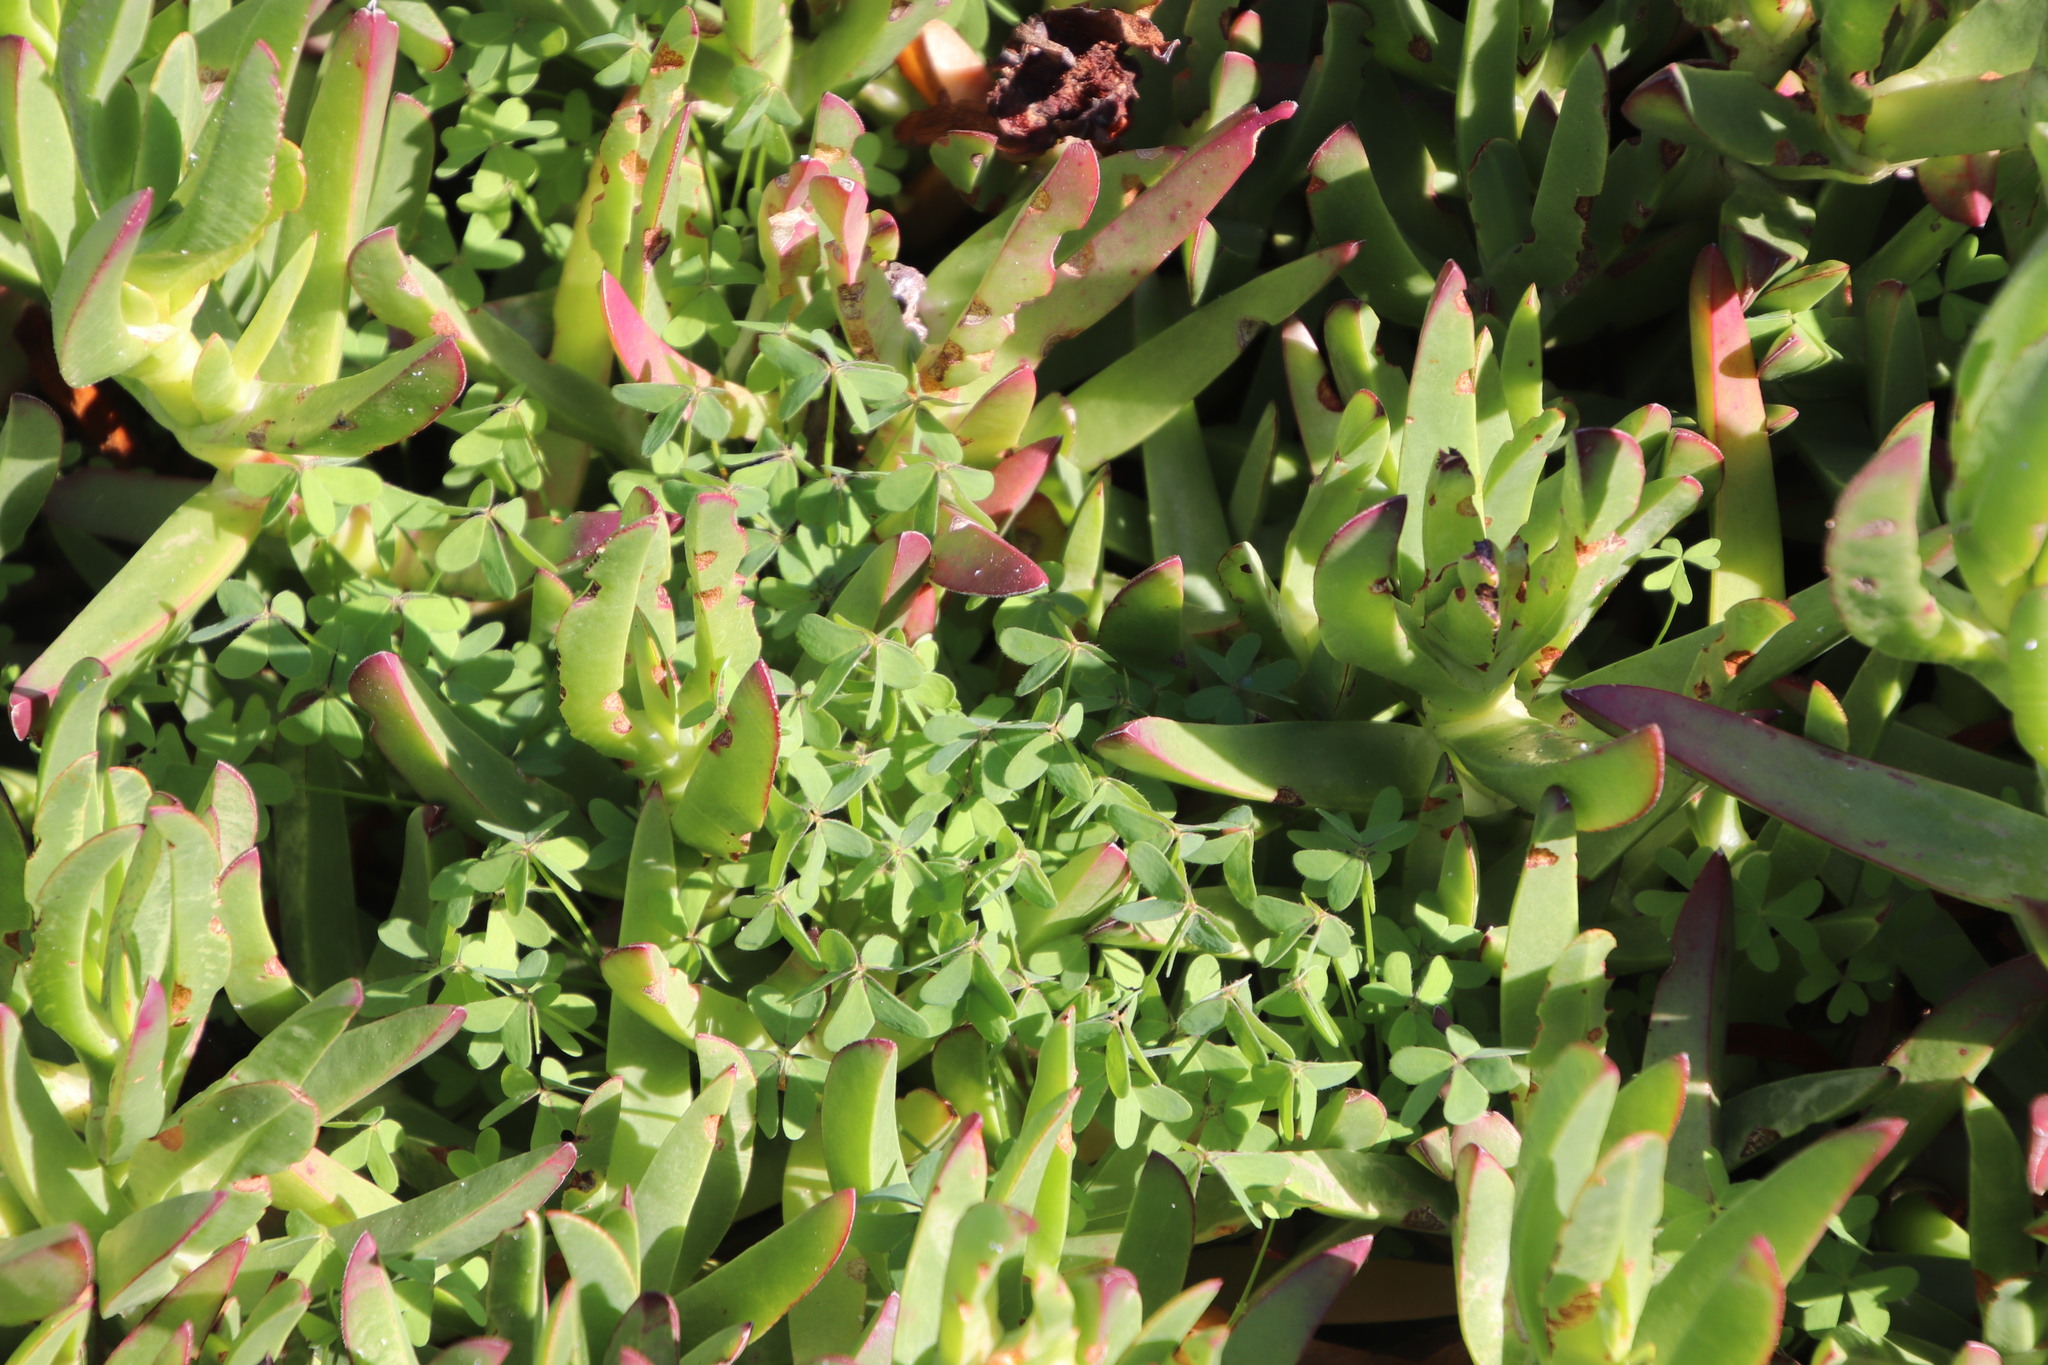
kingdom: Plantae
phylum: Tracheophyta
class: Magnoliopsida
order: Oxalidales
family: Oxalidaceae
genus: Oxalis
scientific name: Oxalis pes-caprae
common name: Bermuda-buttercup
